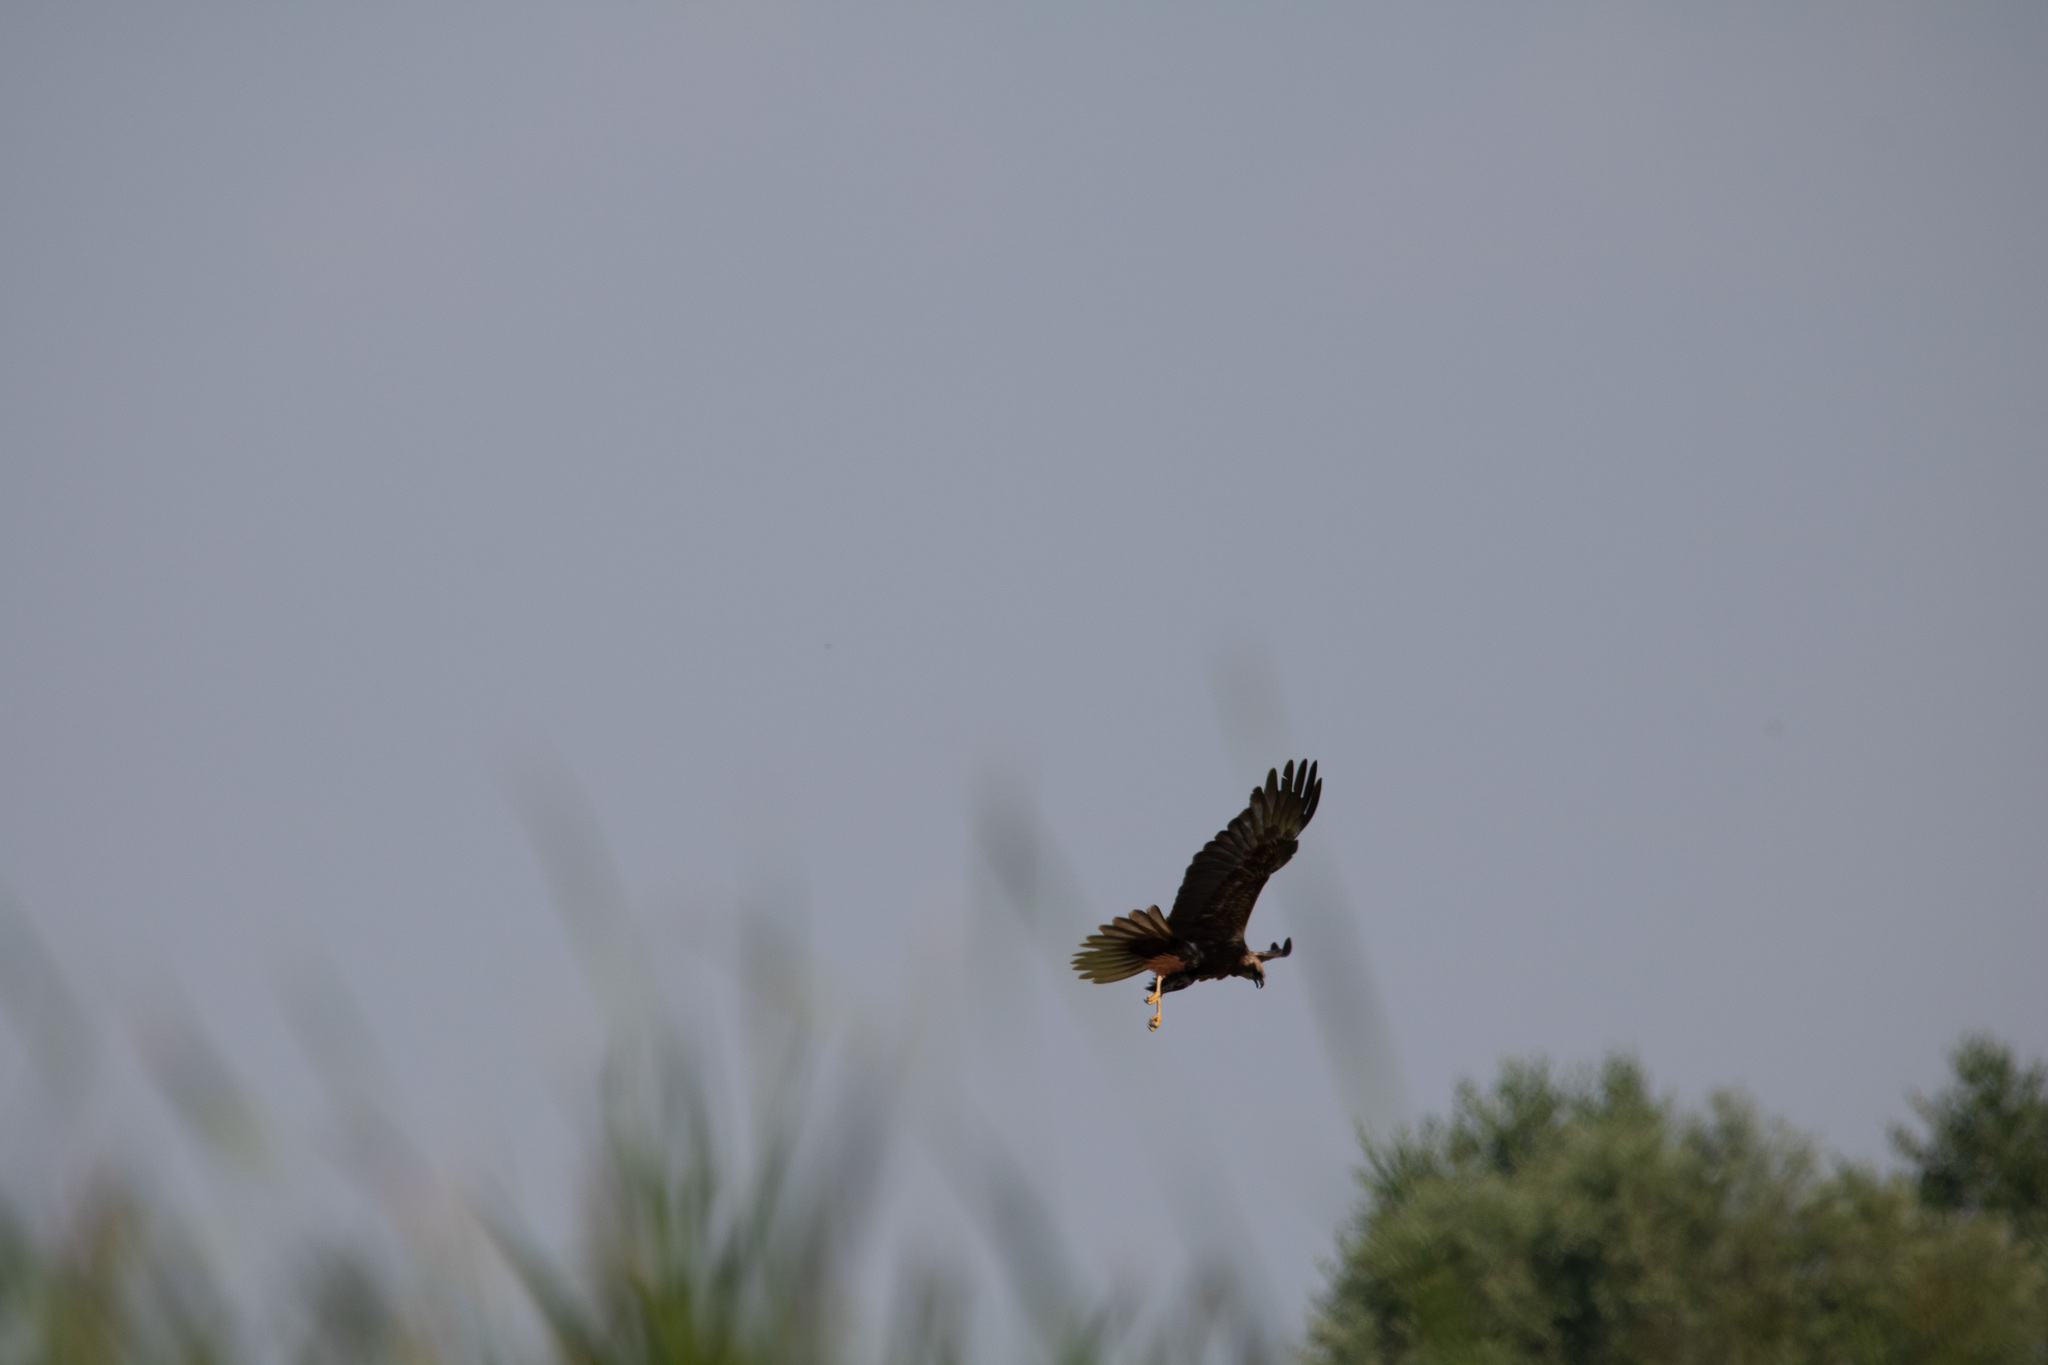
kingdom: Animalia
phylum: Chordata
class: Aves
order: Accipitriformes
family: Accipitridae
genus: Circus
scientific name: Circus aeruginosus
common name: Western marsh harrier
